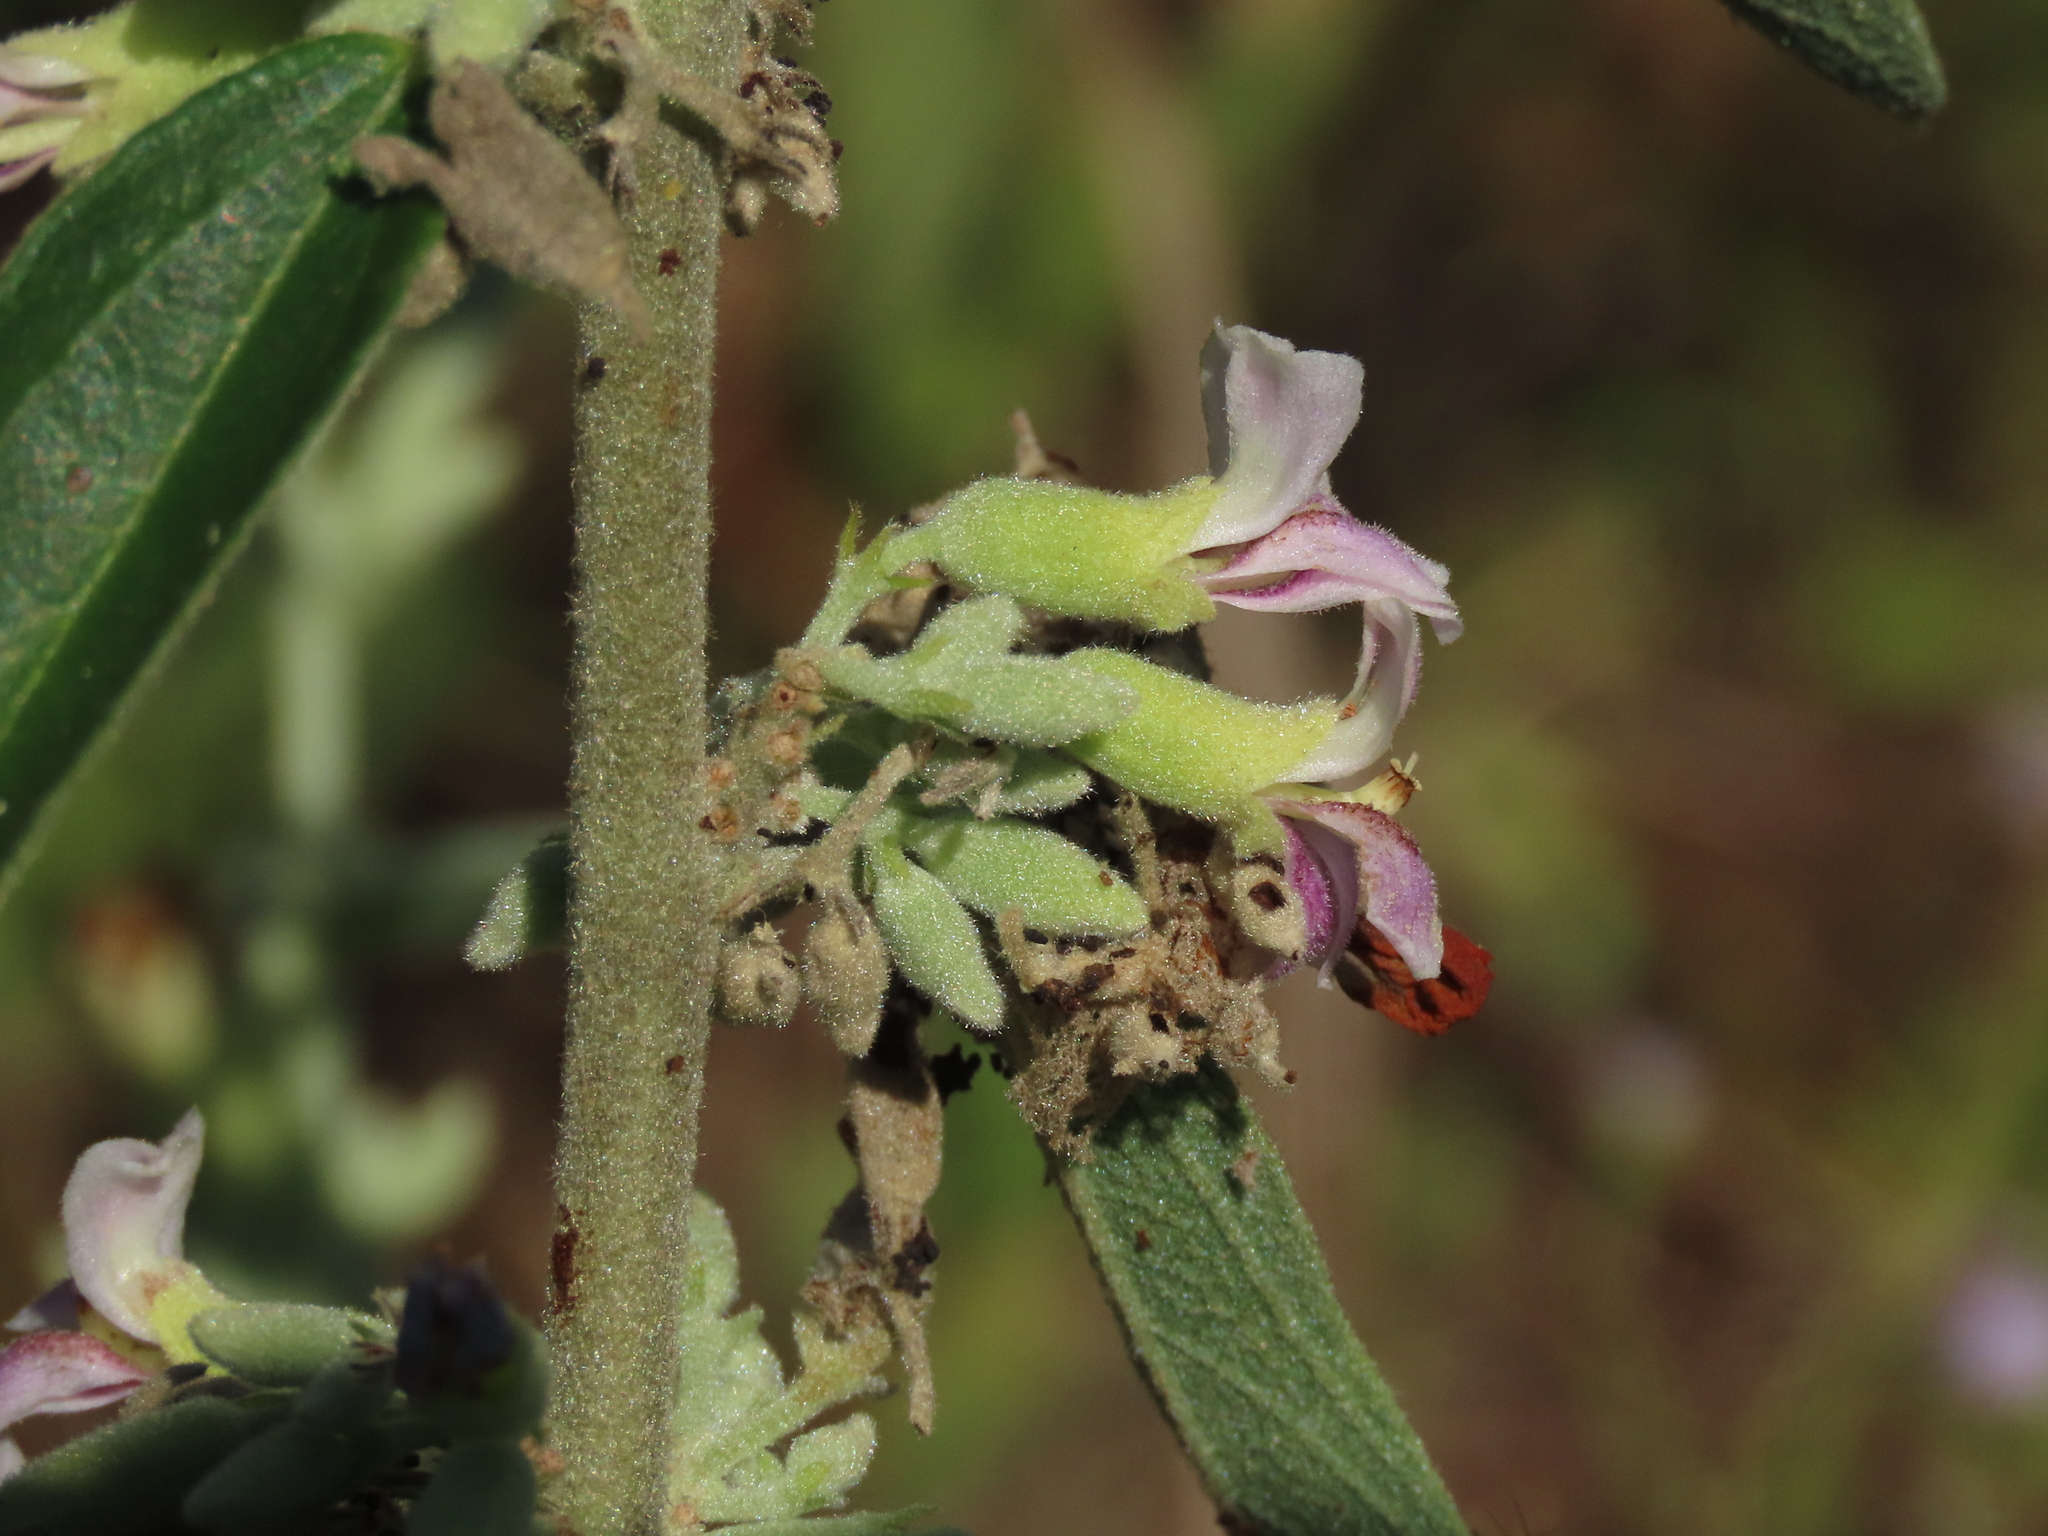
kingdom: Plantae
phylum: Tracheophyta
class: Magnoliopsida
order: Malvales
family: Malvaceae
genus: Helicteres
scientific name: Helicteres angustifolia
